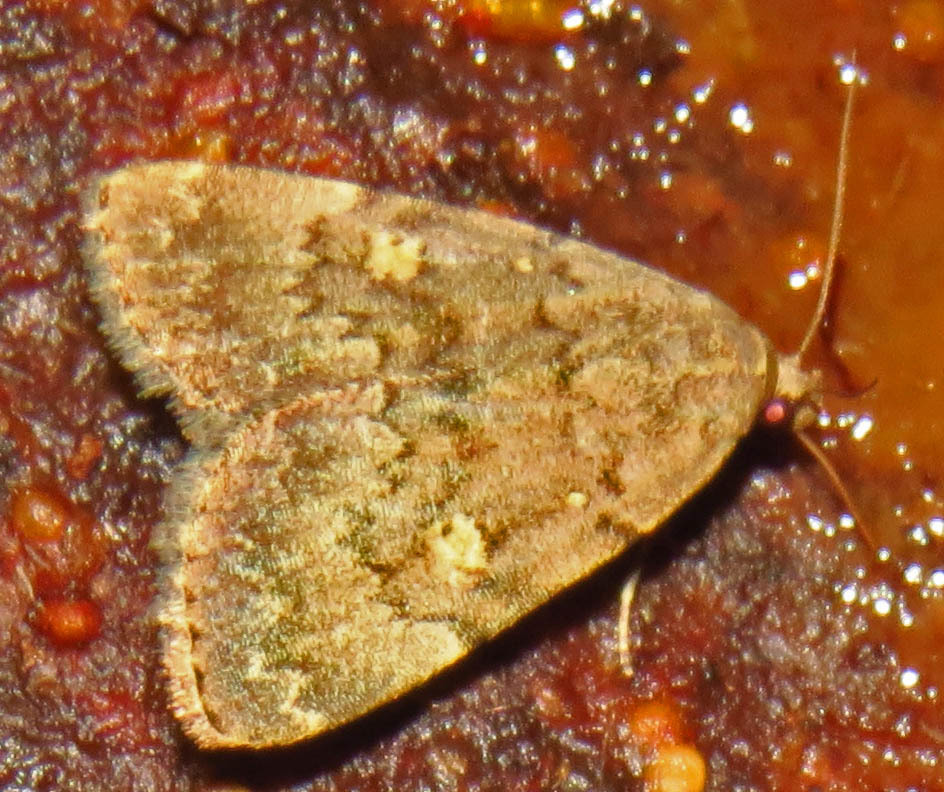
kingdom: Animalia
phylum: Arthropoda
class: Insecta
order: Lepidoptera
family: Erebidae
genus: Idia
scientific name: Idia aemula
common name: Common idia moth
